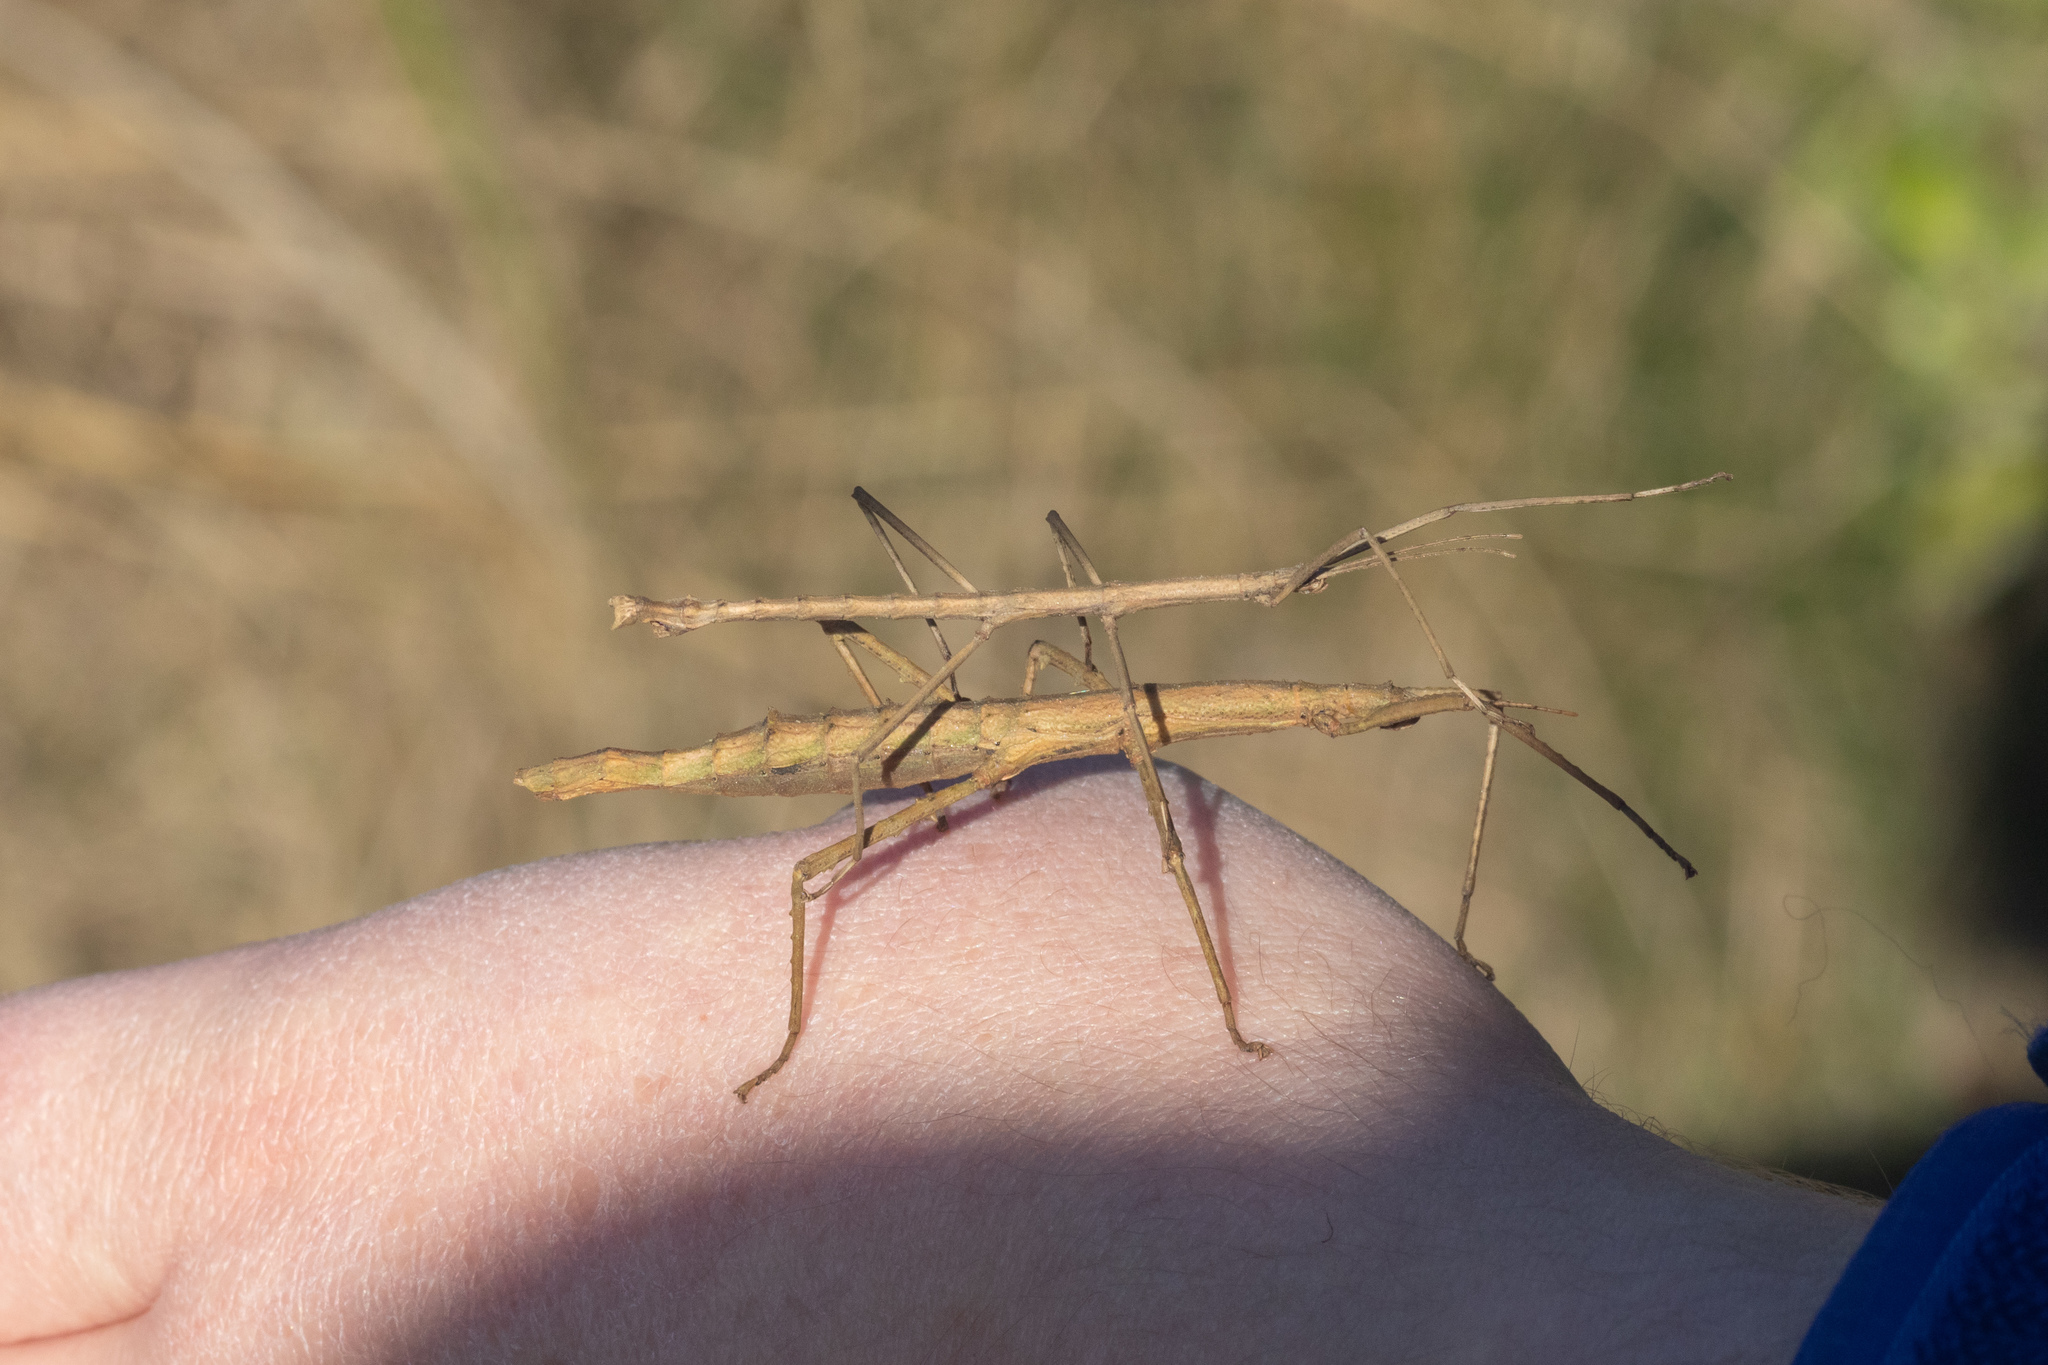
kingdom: Animalia
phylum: Arthropoda
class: Insecta
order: Phasmida
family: Phasmatidae
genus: Niveaphasma
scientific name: Niveaphasma annulatum
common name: Hutton's stick insect
